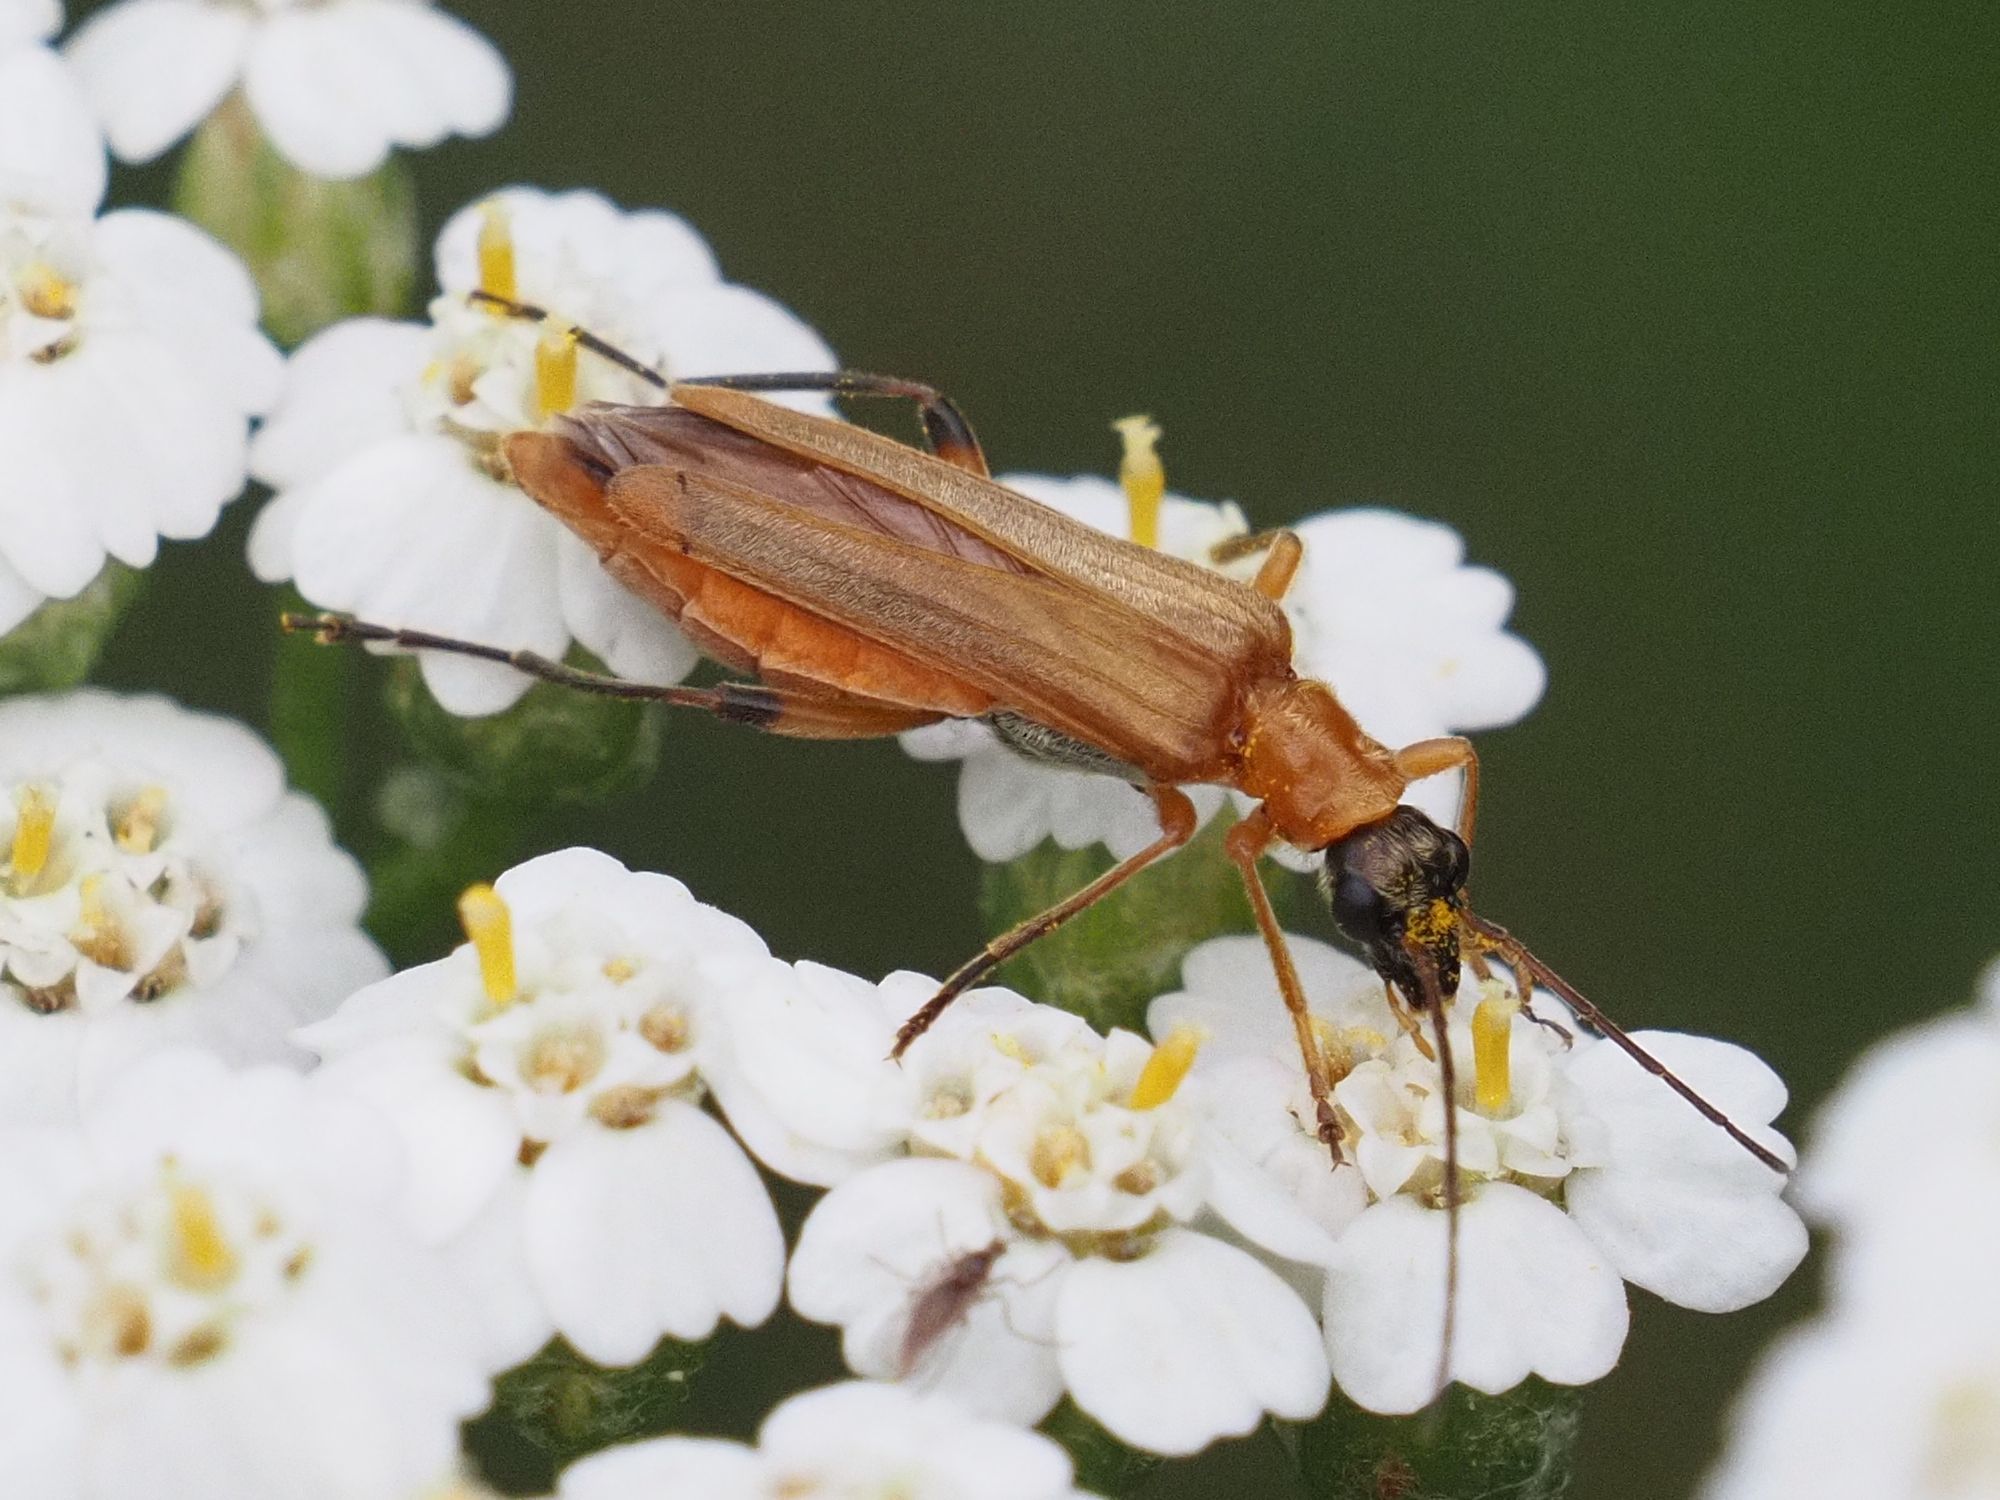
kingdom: Animalia
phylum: Arthropoda
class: Insecta
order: Coleoptera
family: Oedemeridae
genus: Oedemera
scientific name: Oedemera podagrariae
